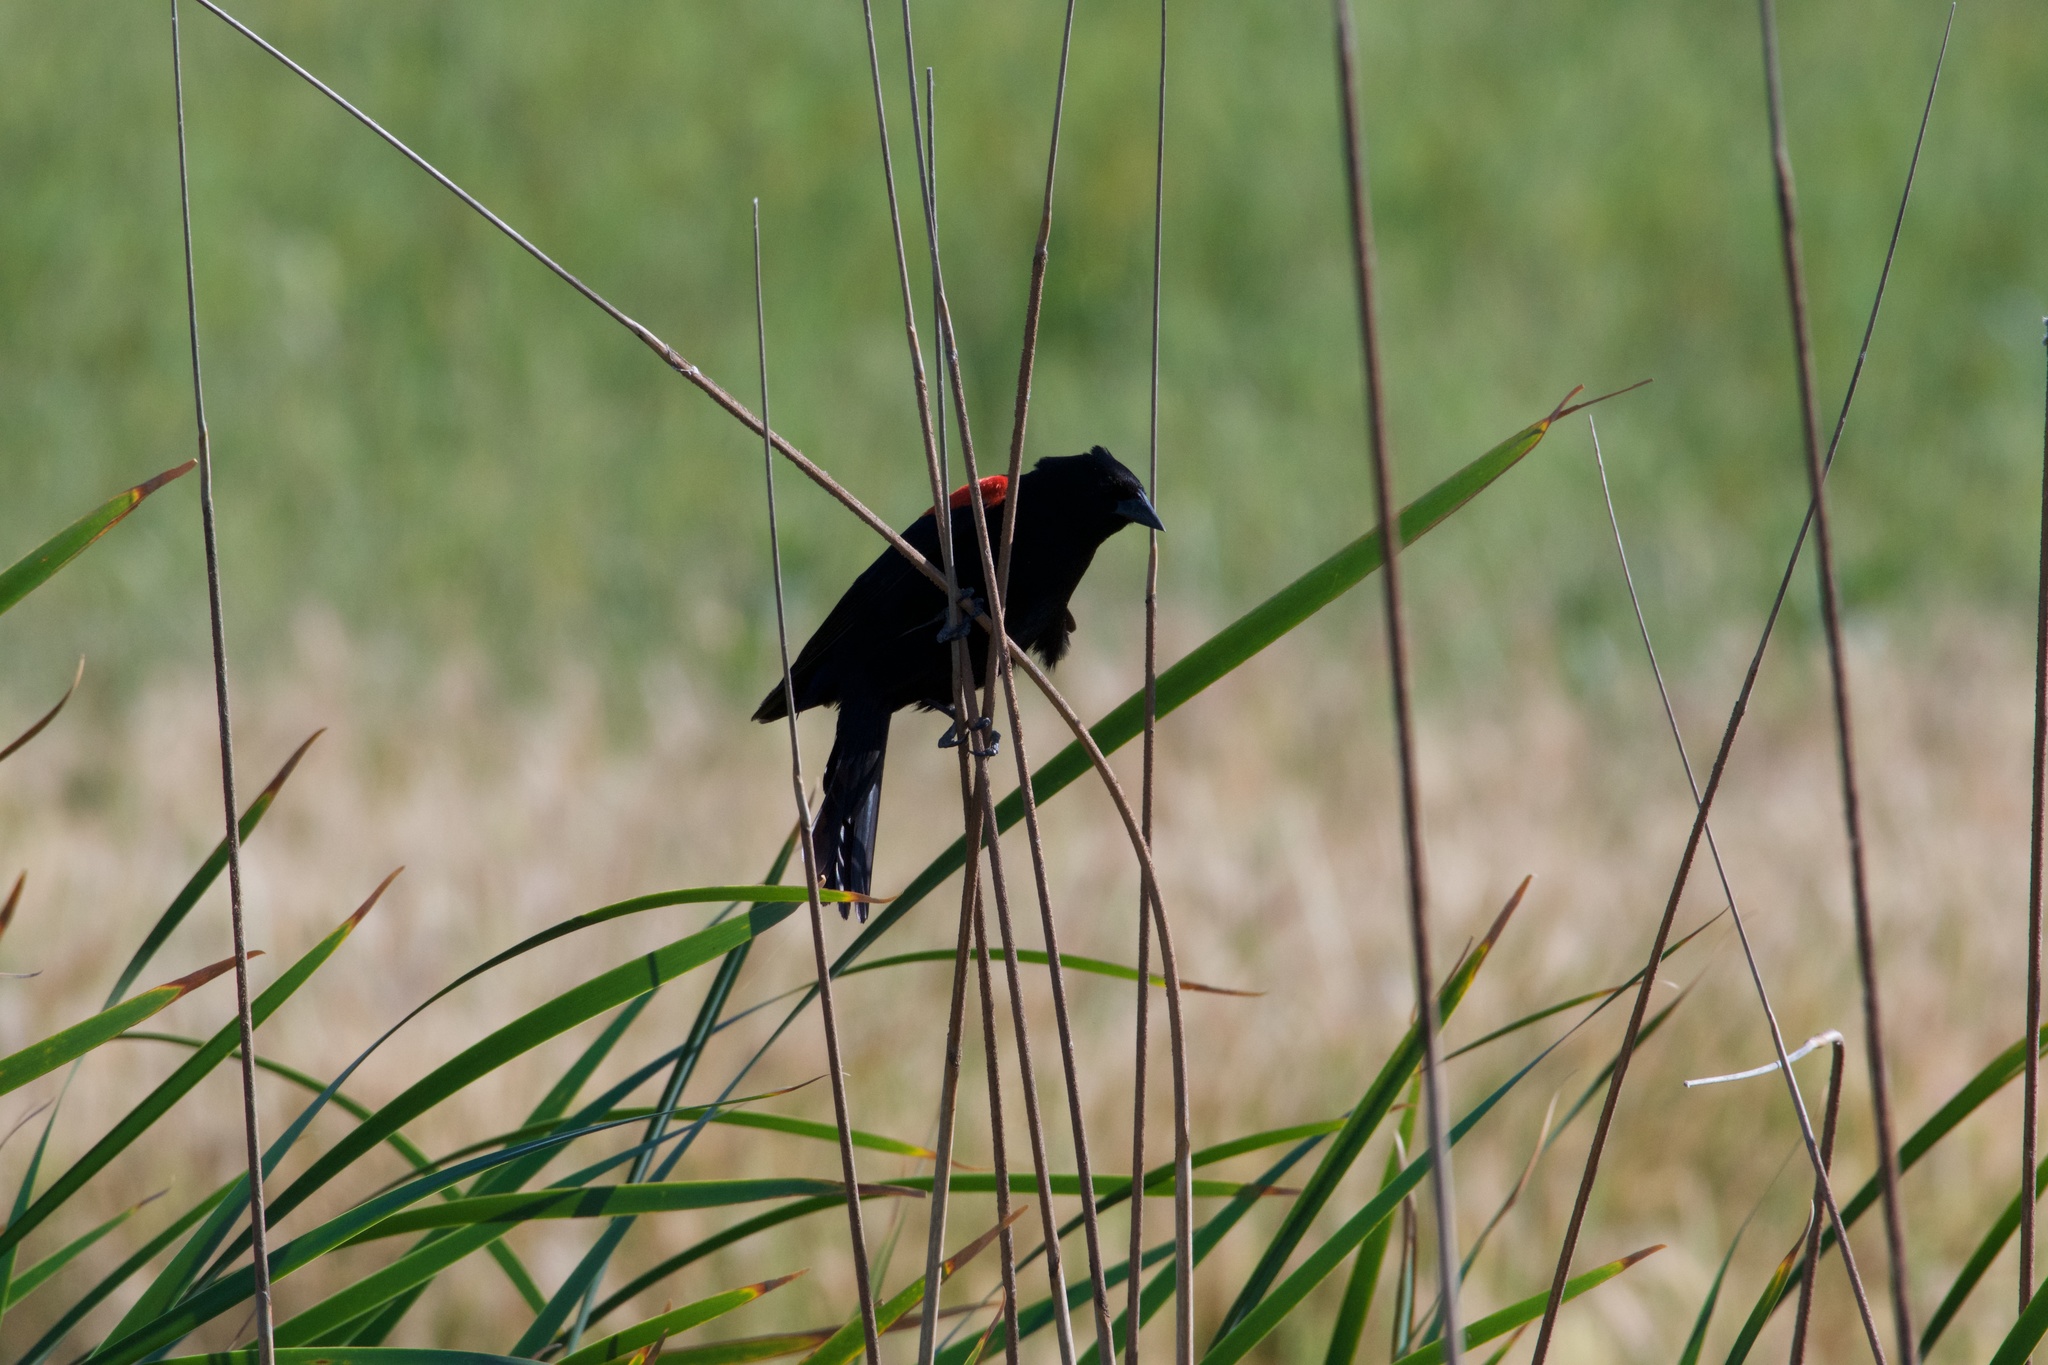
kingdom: Animalia
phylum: Chordata
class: Aves
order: Passeriformes
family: Icteridae
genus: Agelaius
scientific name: Agelaius phoeniceus
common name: Red-winged blackbird
